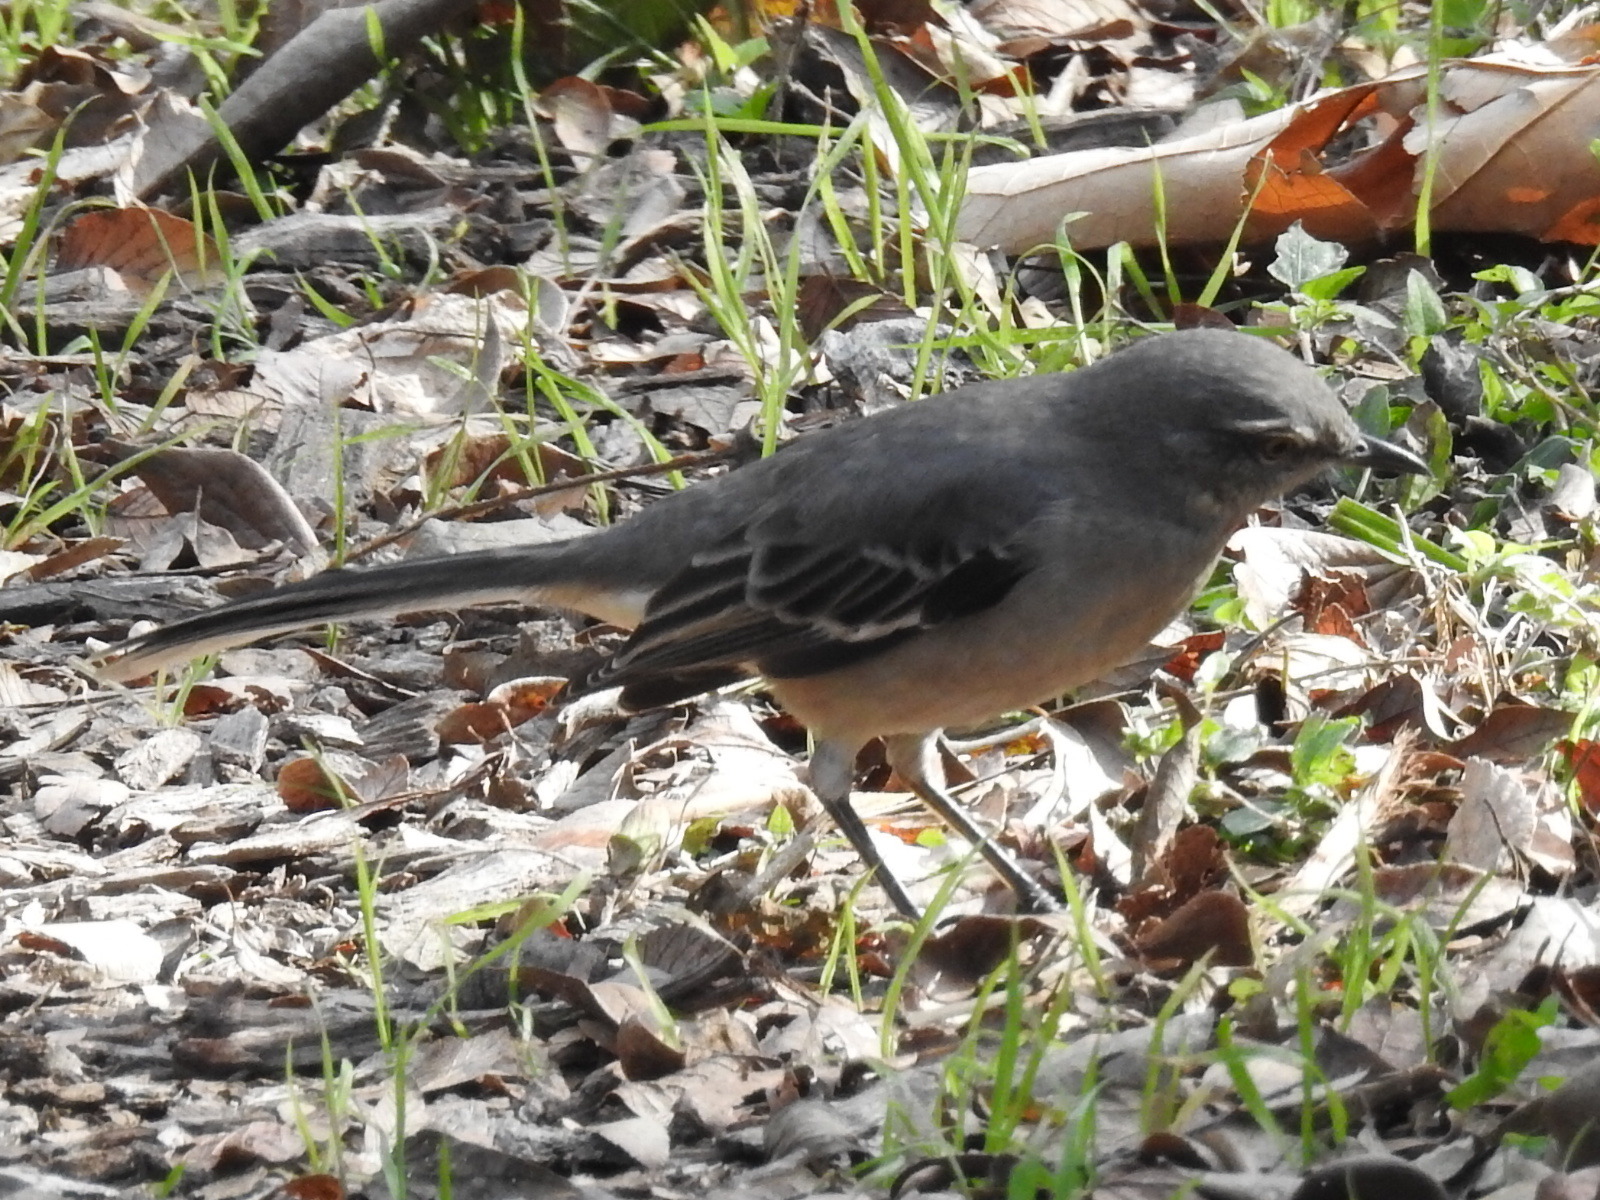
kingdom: Animalia
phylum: Chordata
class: Aves
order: Passeriformes
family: Mimidae
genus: Mimus
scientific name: Mimus polyglottos
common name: Northern mockingbird
